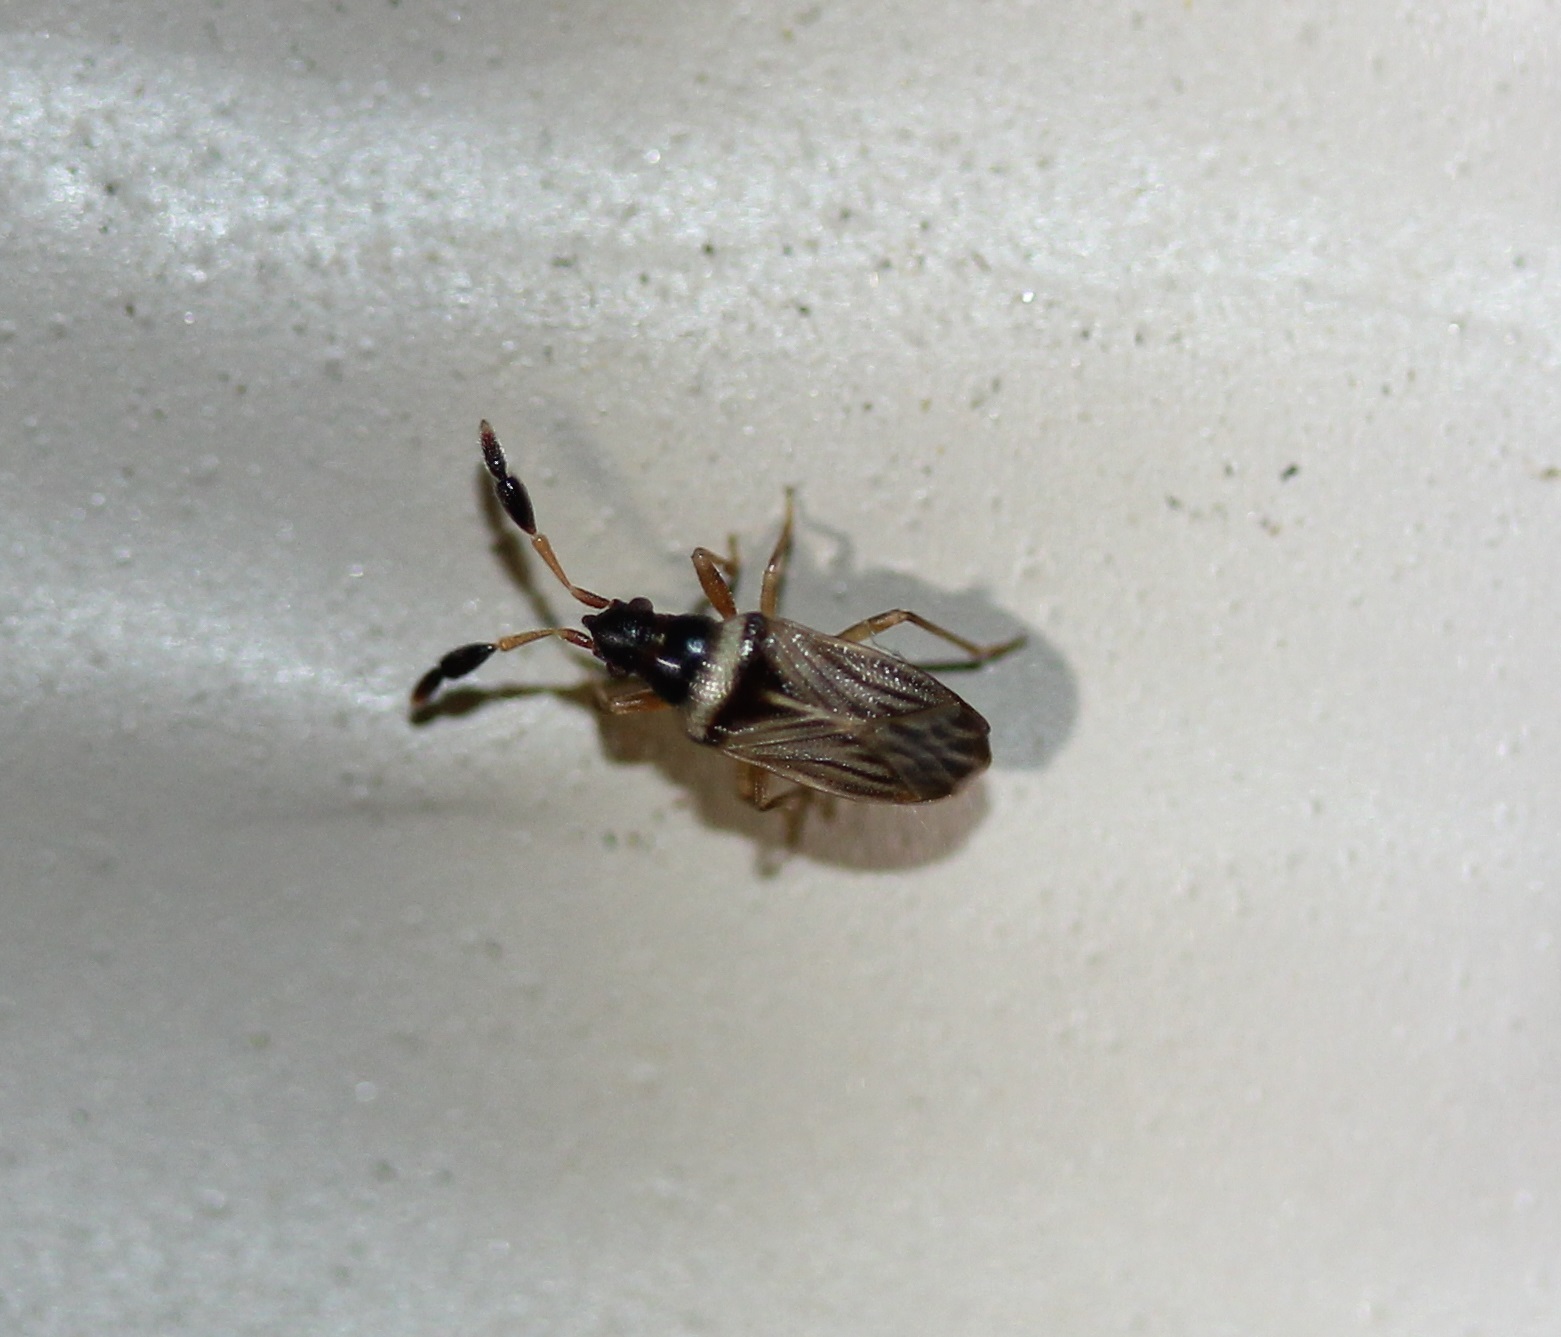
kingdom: Animalia
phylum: Arthropoda
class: Insecta
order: Hemiptera
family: Rhyparochromidae
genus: Ptochiomera
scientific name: Ptochiomera nodosa
